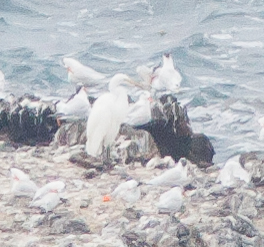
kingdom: Animalia
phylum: Chordata
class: Aves
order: Pelecaniformes
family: Ardeidae
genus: Ardea
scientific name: Ardea alba
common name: Great egret
